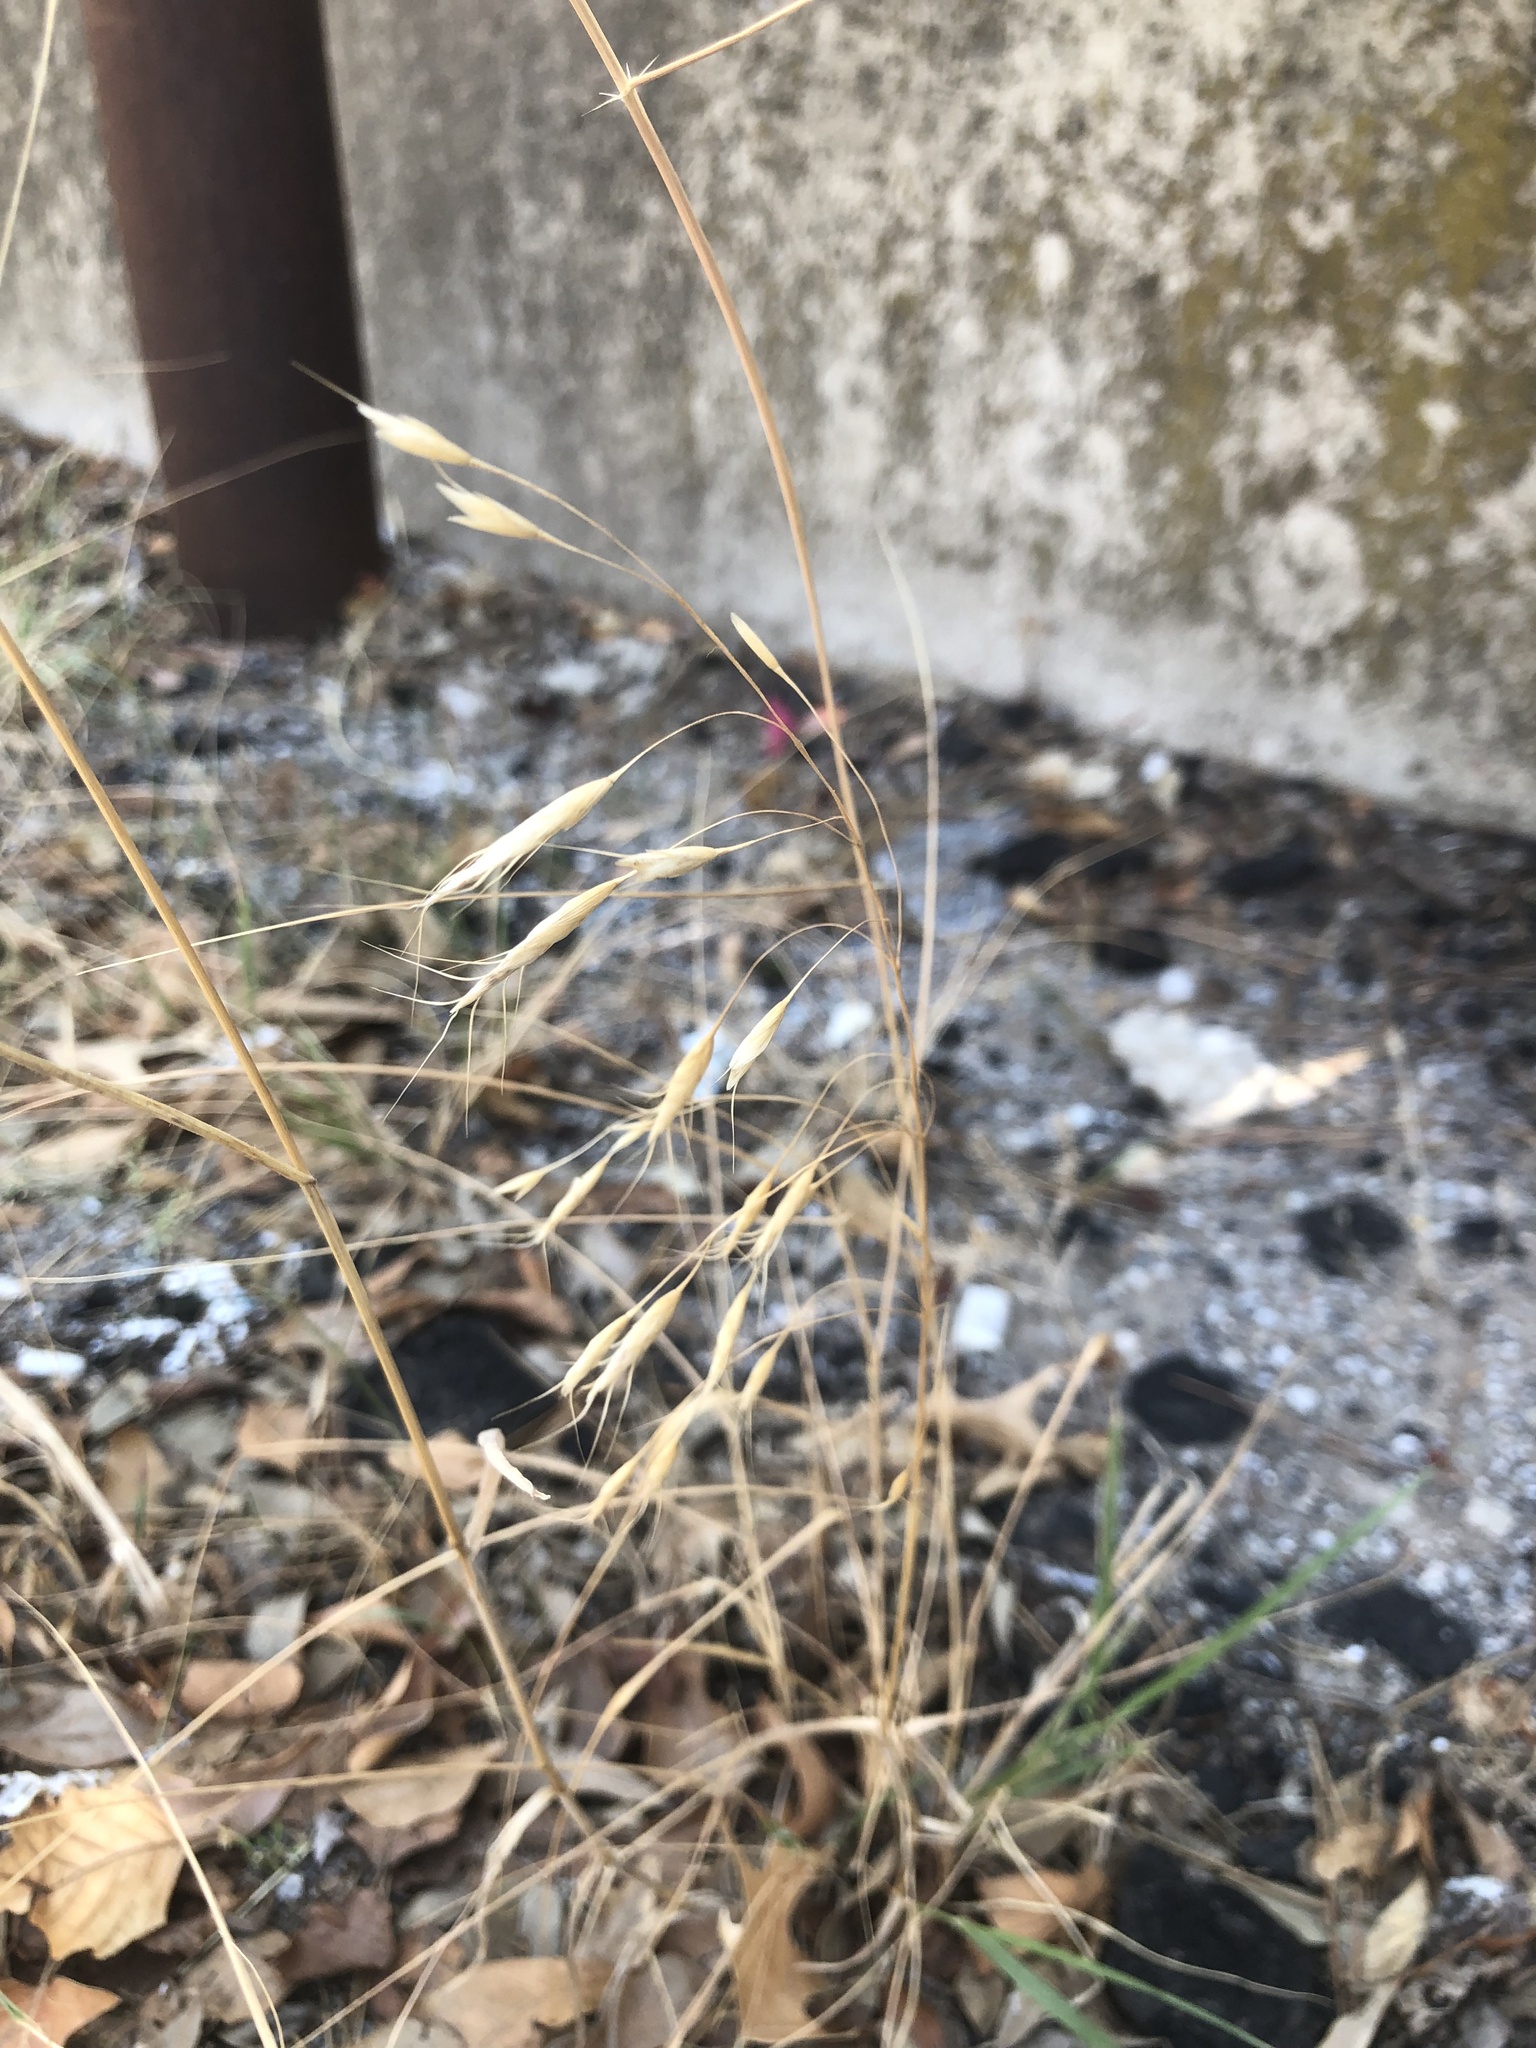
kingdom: Plantae
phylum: Tracheophyta
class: Liliopsida
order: Poales
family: Poaceae
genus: Bromus
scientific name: Bromus japonicus
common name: Japanese brome
